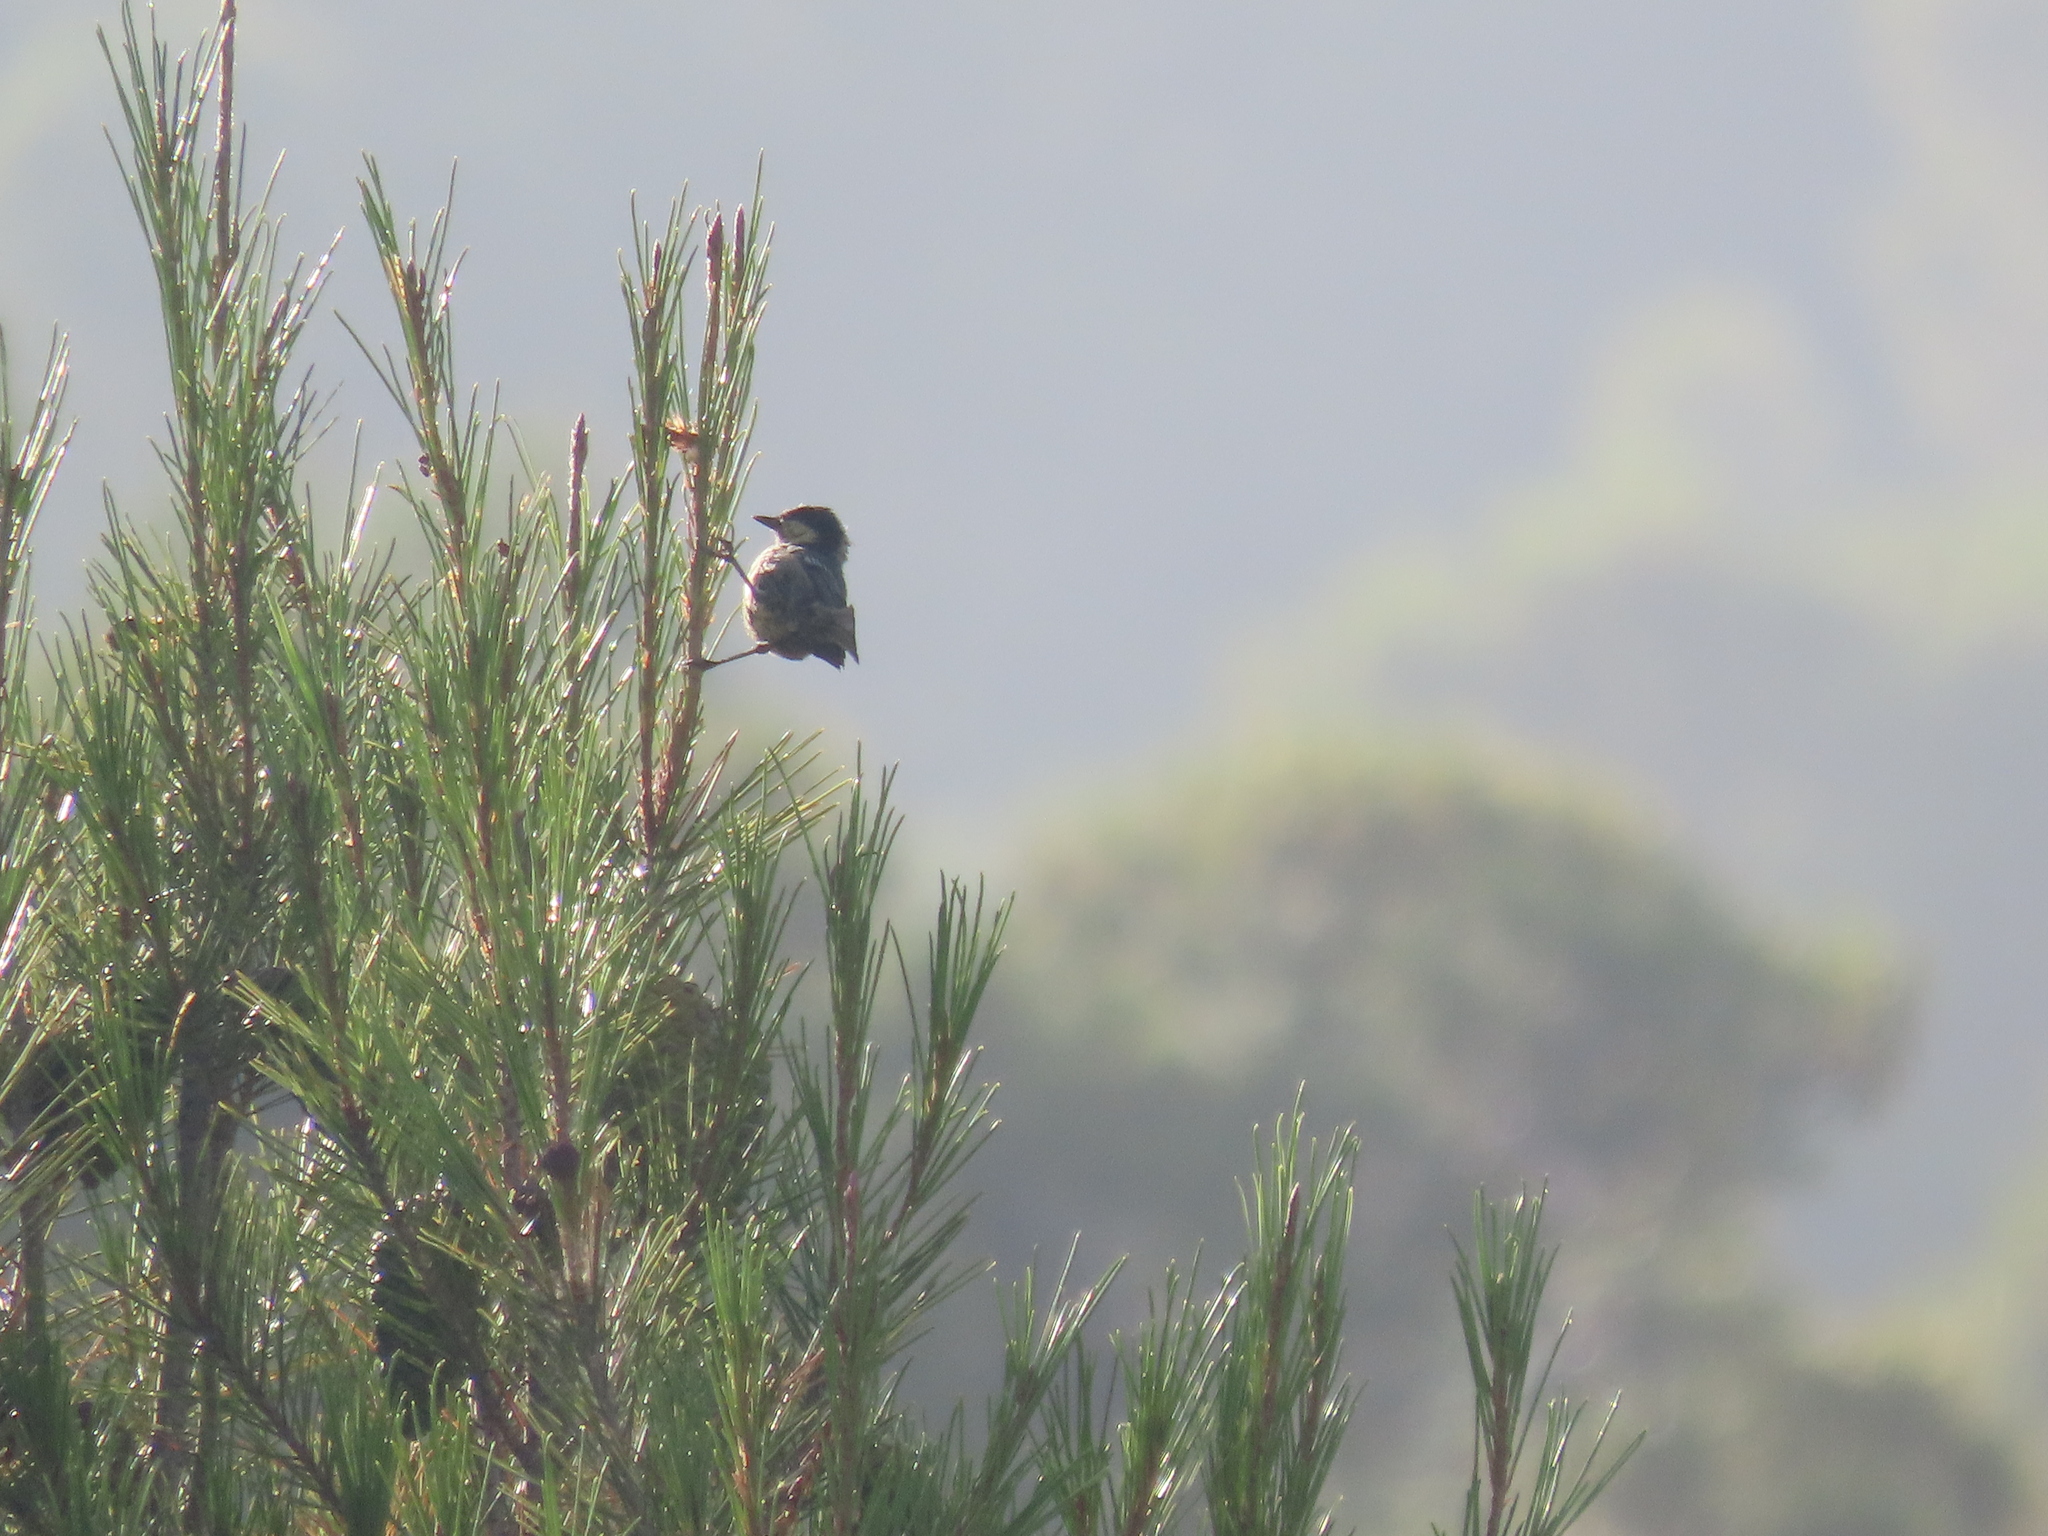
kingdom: Animalia
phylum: Chordata
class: Aves
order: Passeriformes
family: Paridae
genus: Parus
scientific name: Parus major
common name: Great tit
